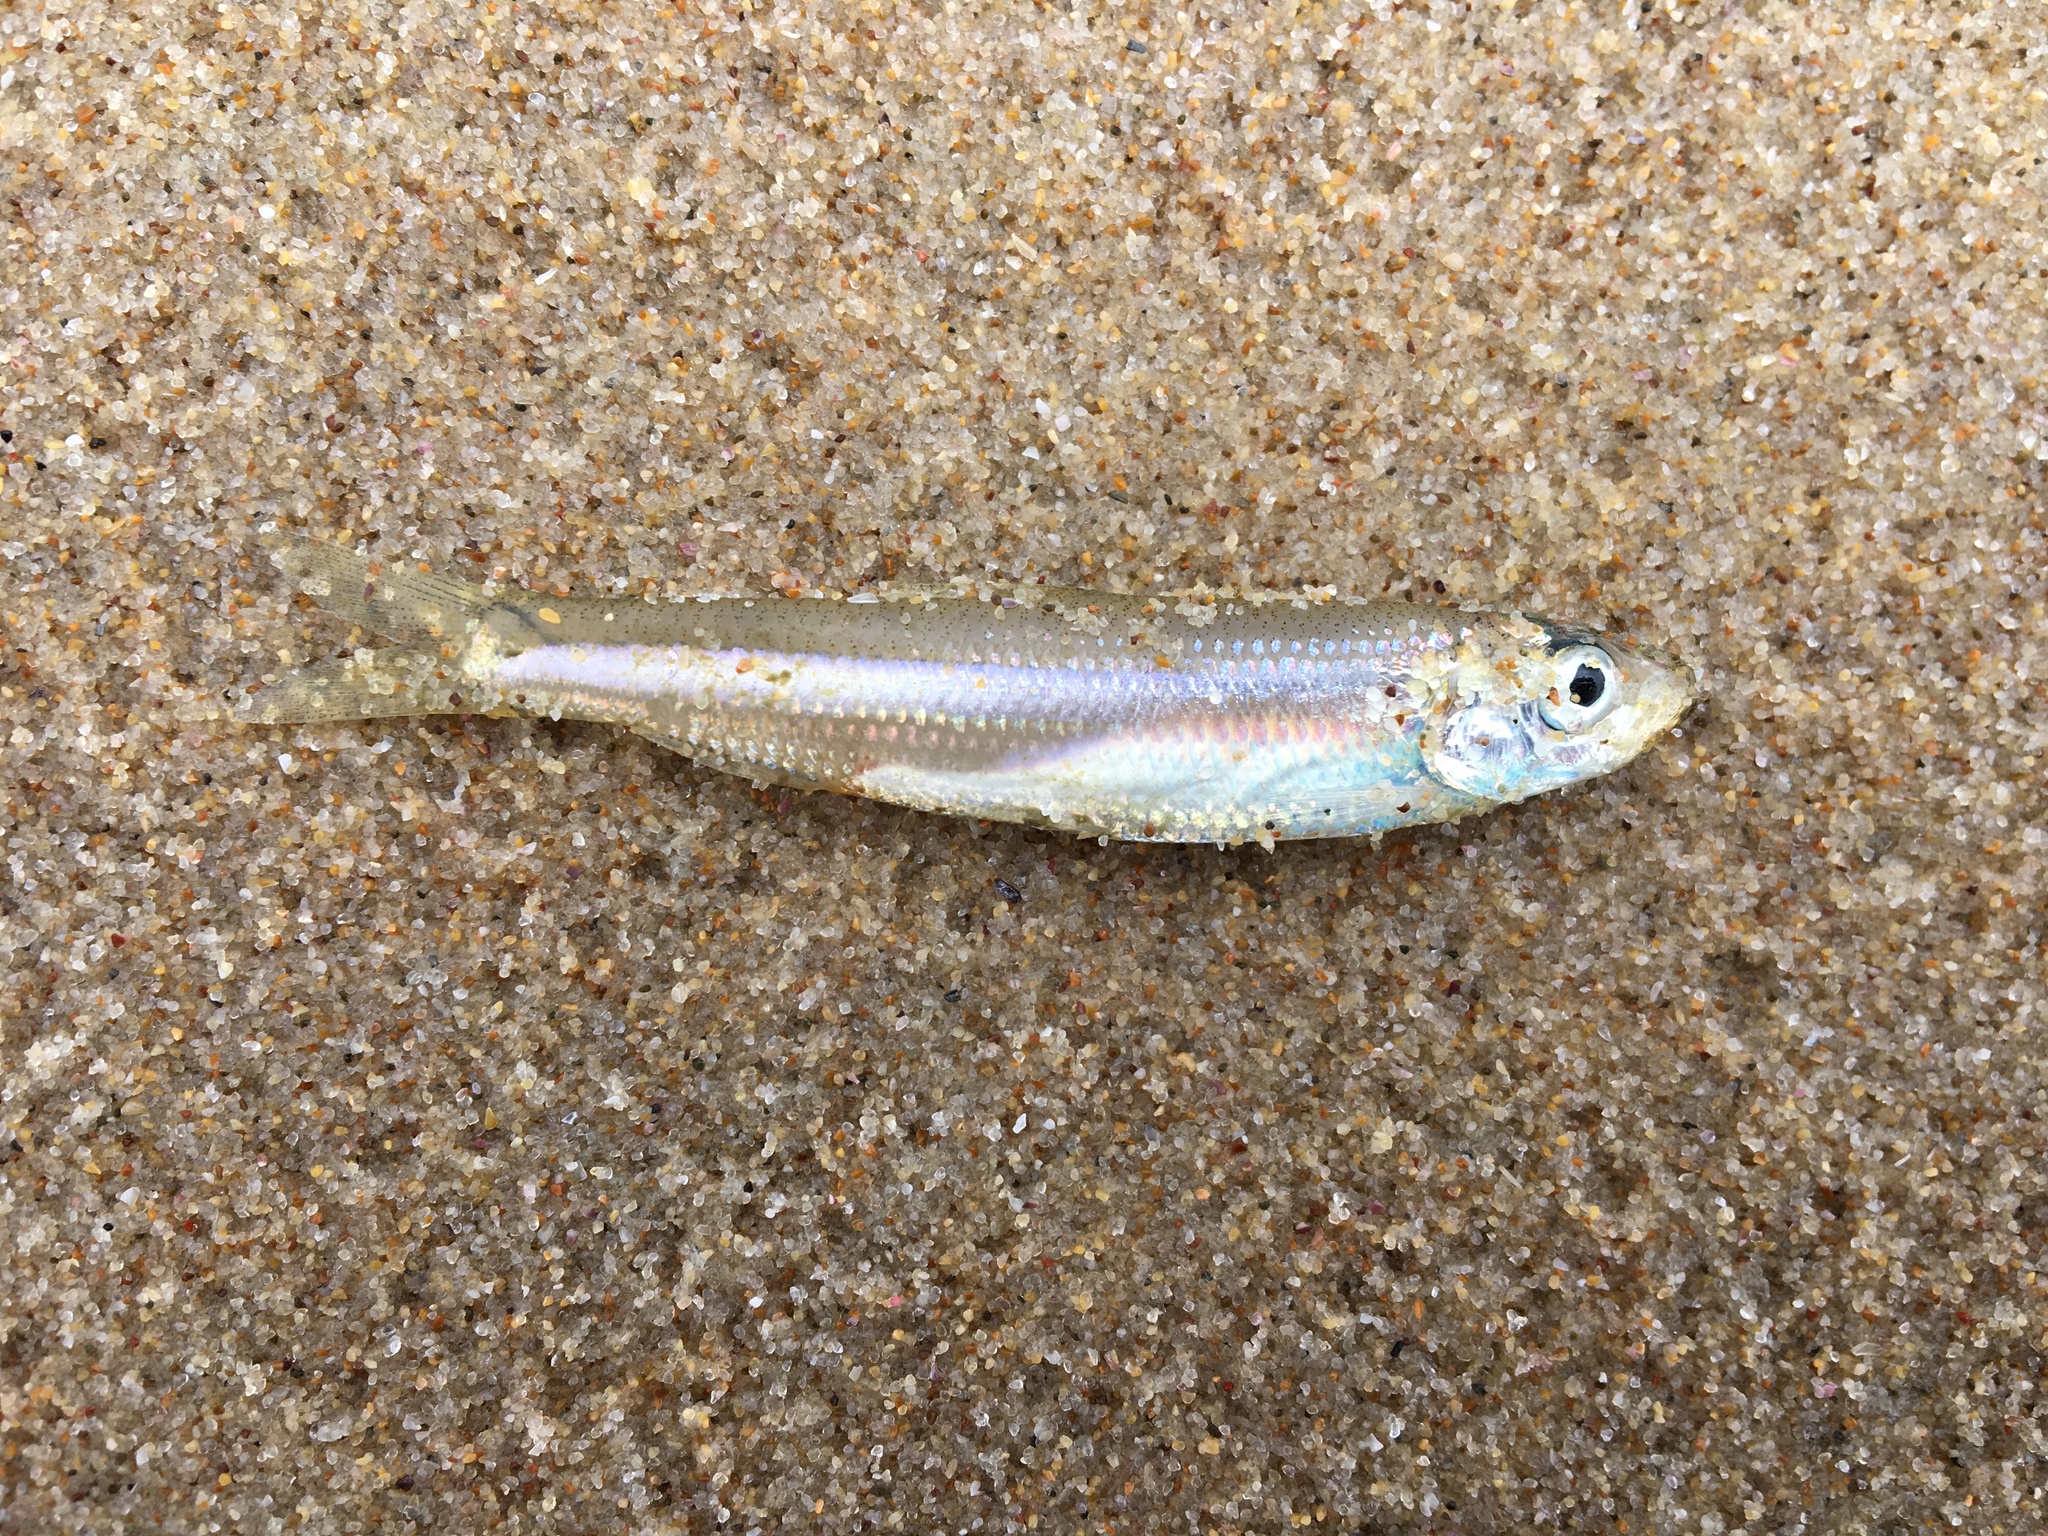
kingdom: Animalia
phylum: Chordata
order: Clupeiformes
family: Clupeidae
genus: Hyperlophus
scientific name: Hyperlophus vittatus
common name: Sandy sprat
